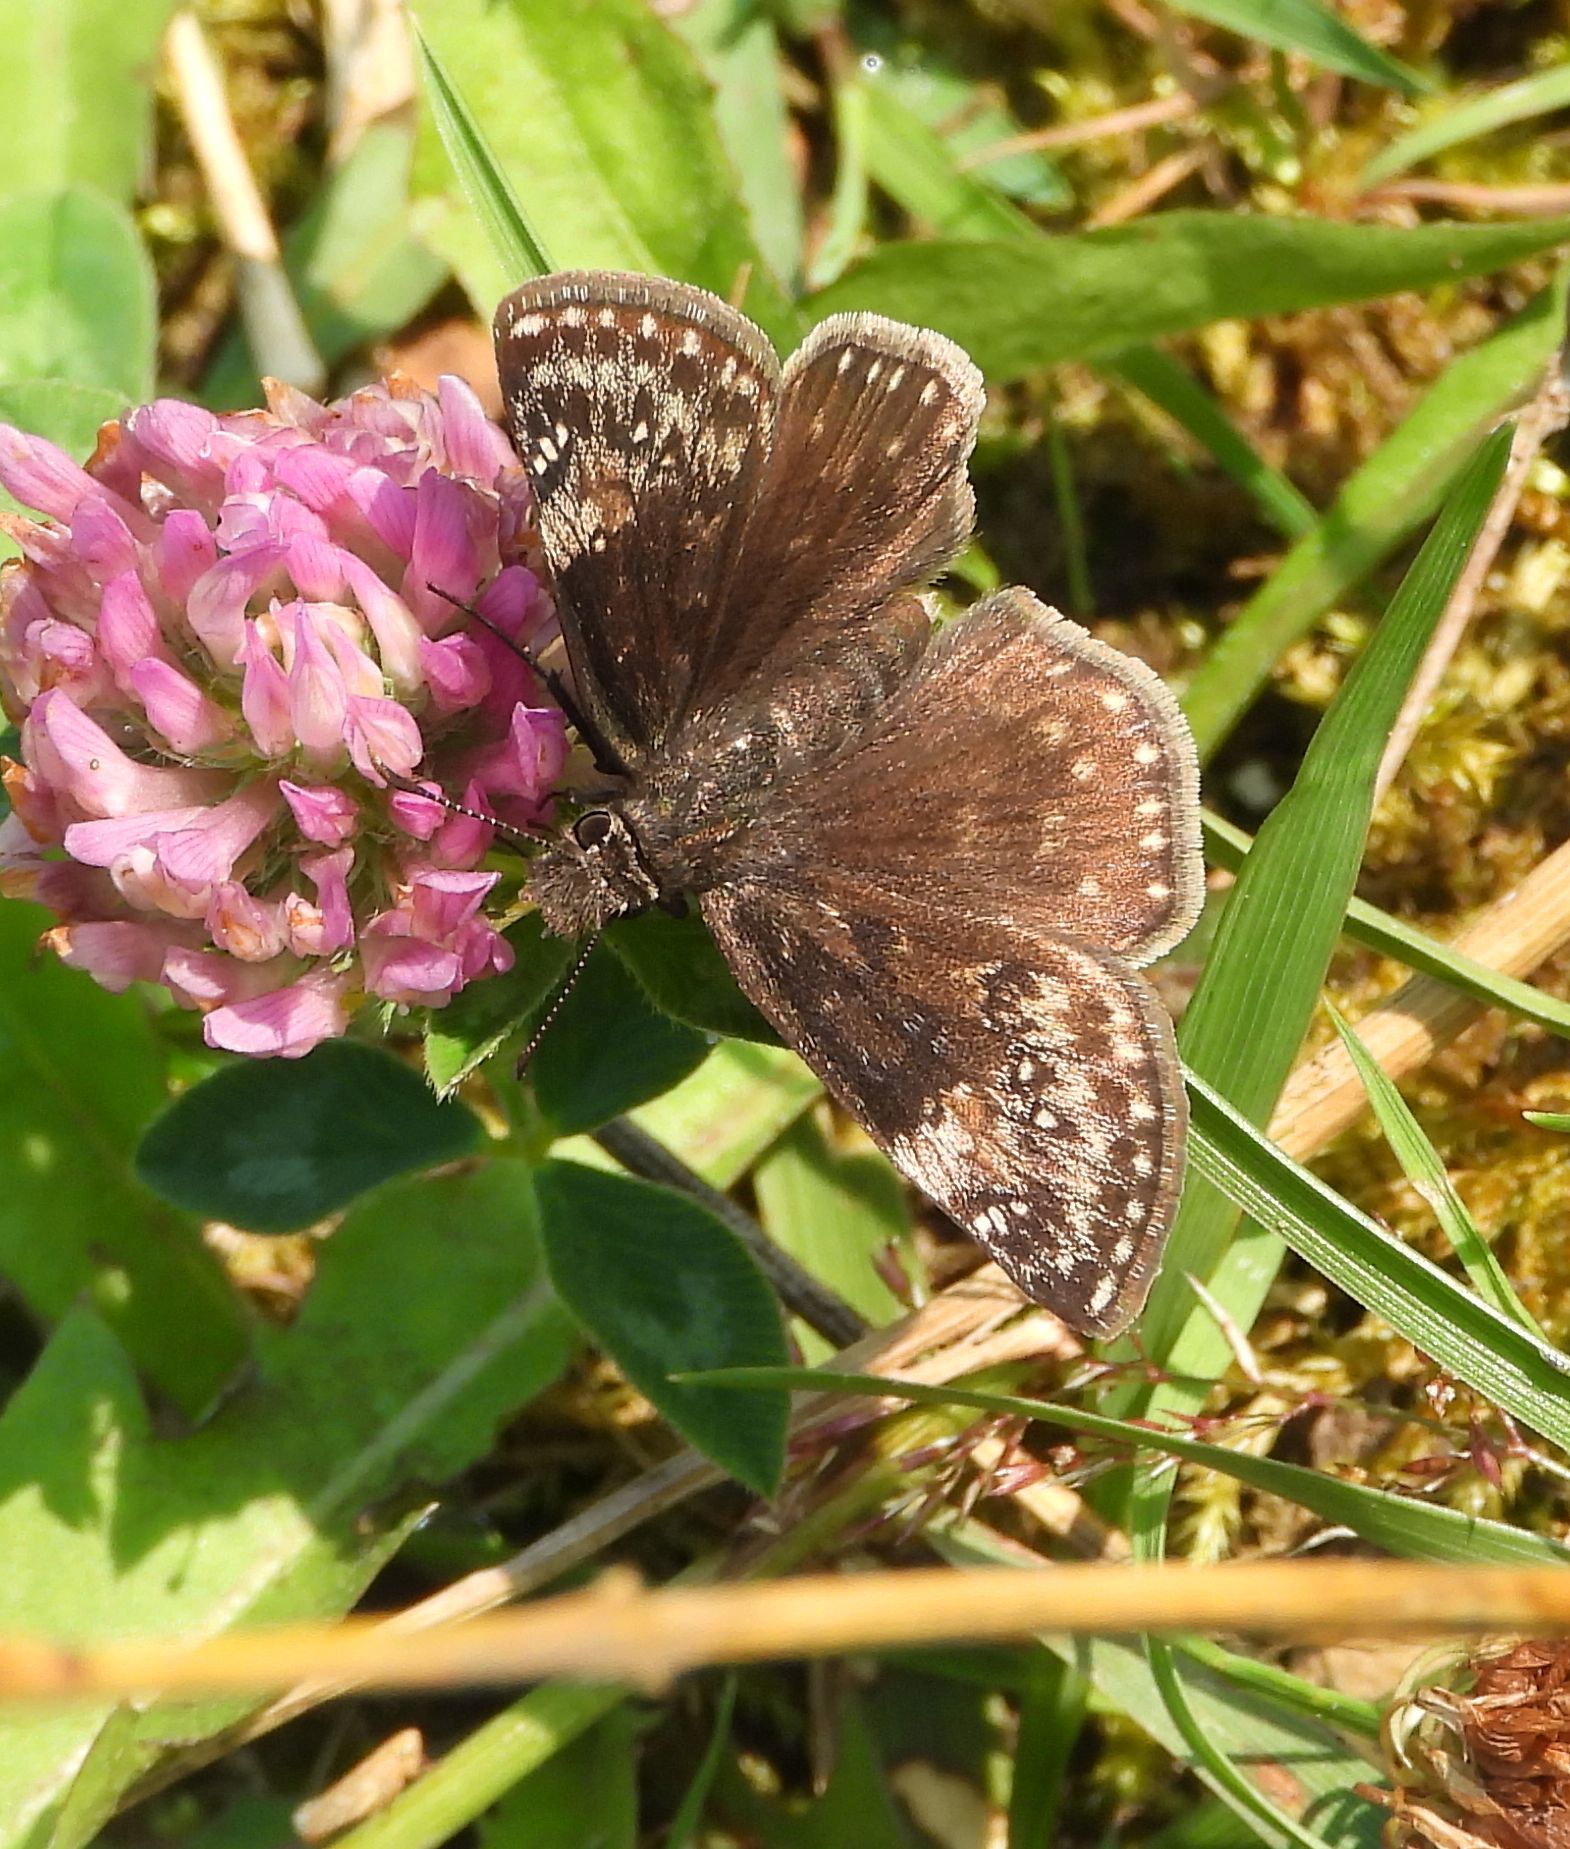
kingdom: Animalia
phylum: Arthropoda
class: Insecta
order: Lepidoptera
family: Hesperiidae
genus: Erynnis
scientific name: Erynnis lucilius
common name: Columbine duskywing
